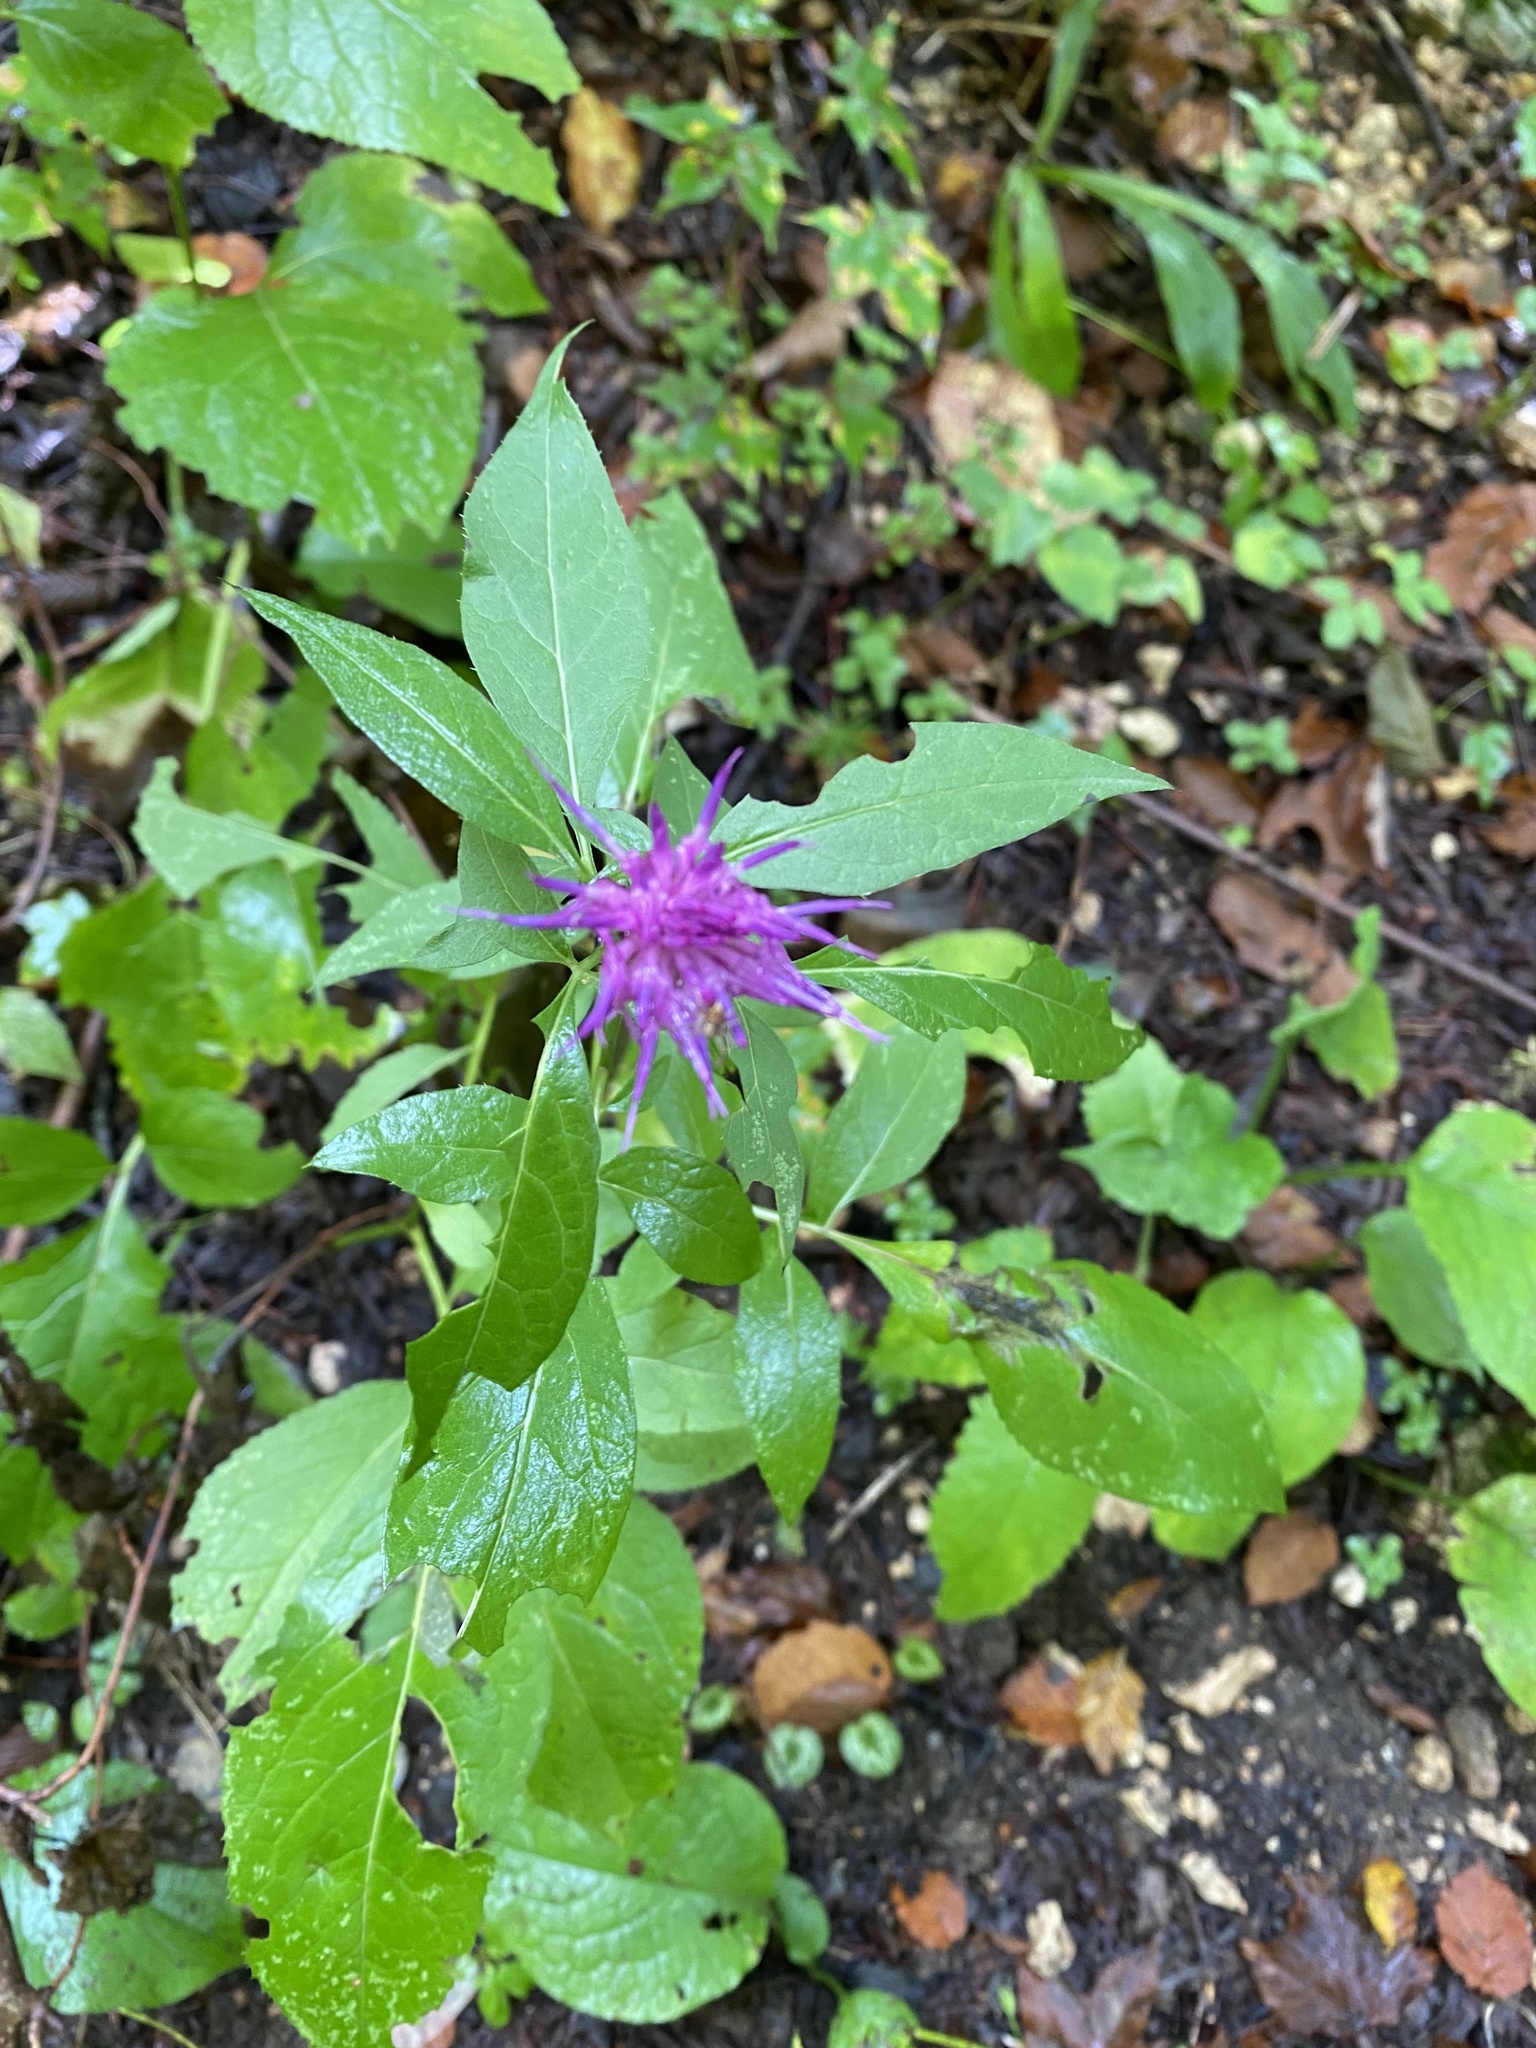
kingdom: Plantae
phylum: Tracheophyta
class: Magnoliopsida
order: Asterales
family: Asteraceae
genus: Klasea
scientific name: Klasea quinquefolia
